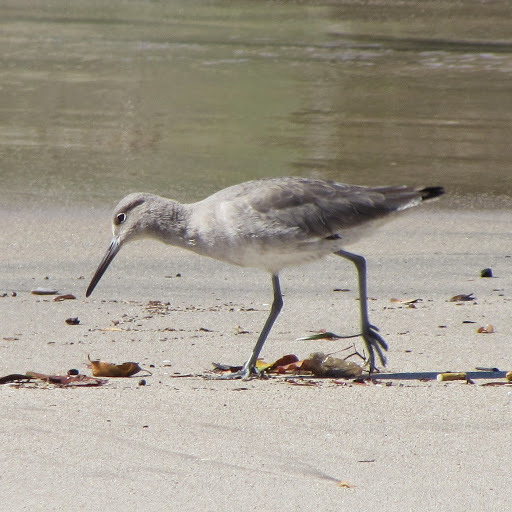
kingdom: Animalia
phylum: Chordata
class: Aves
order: Charadriiformes
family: Scolopacidae
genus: Tringa
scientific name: Tringa semipalmata
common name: Willet
